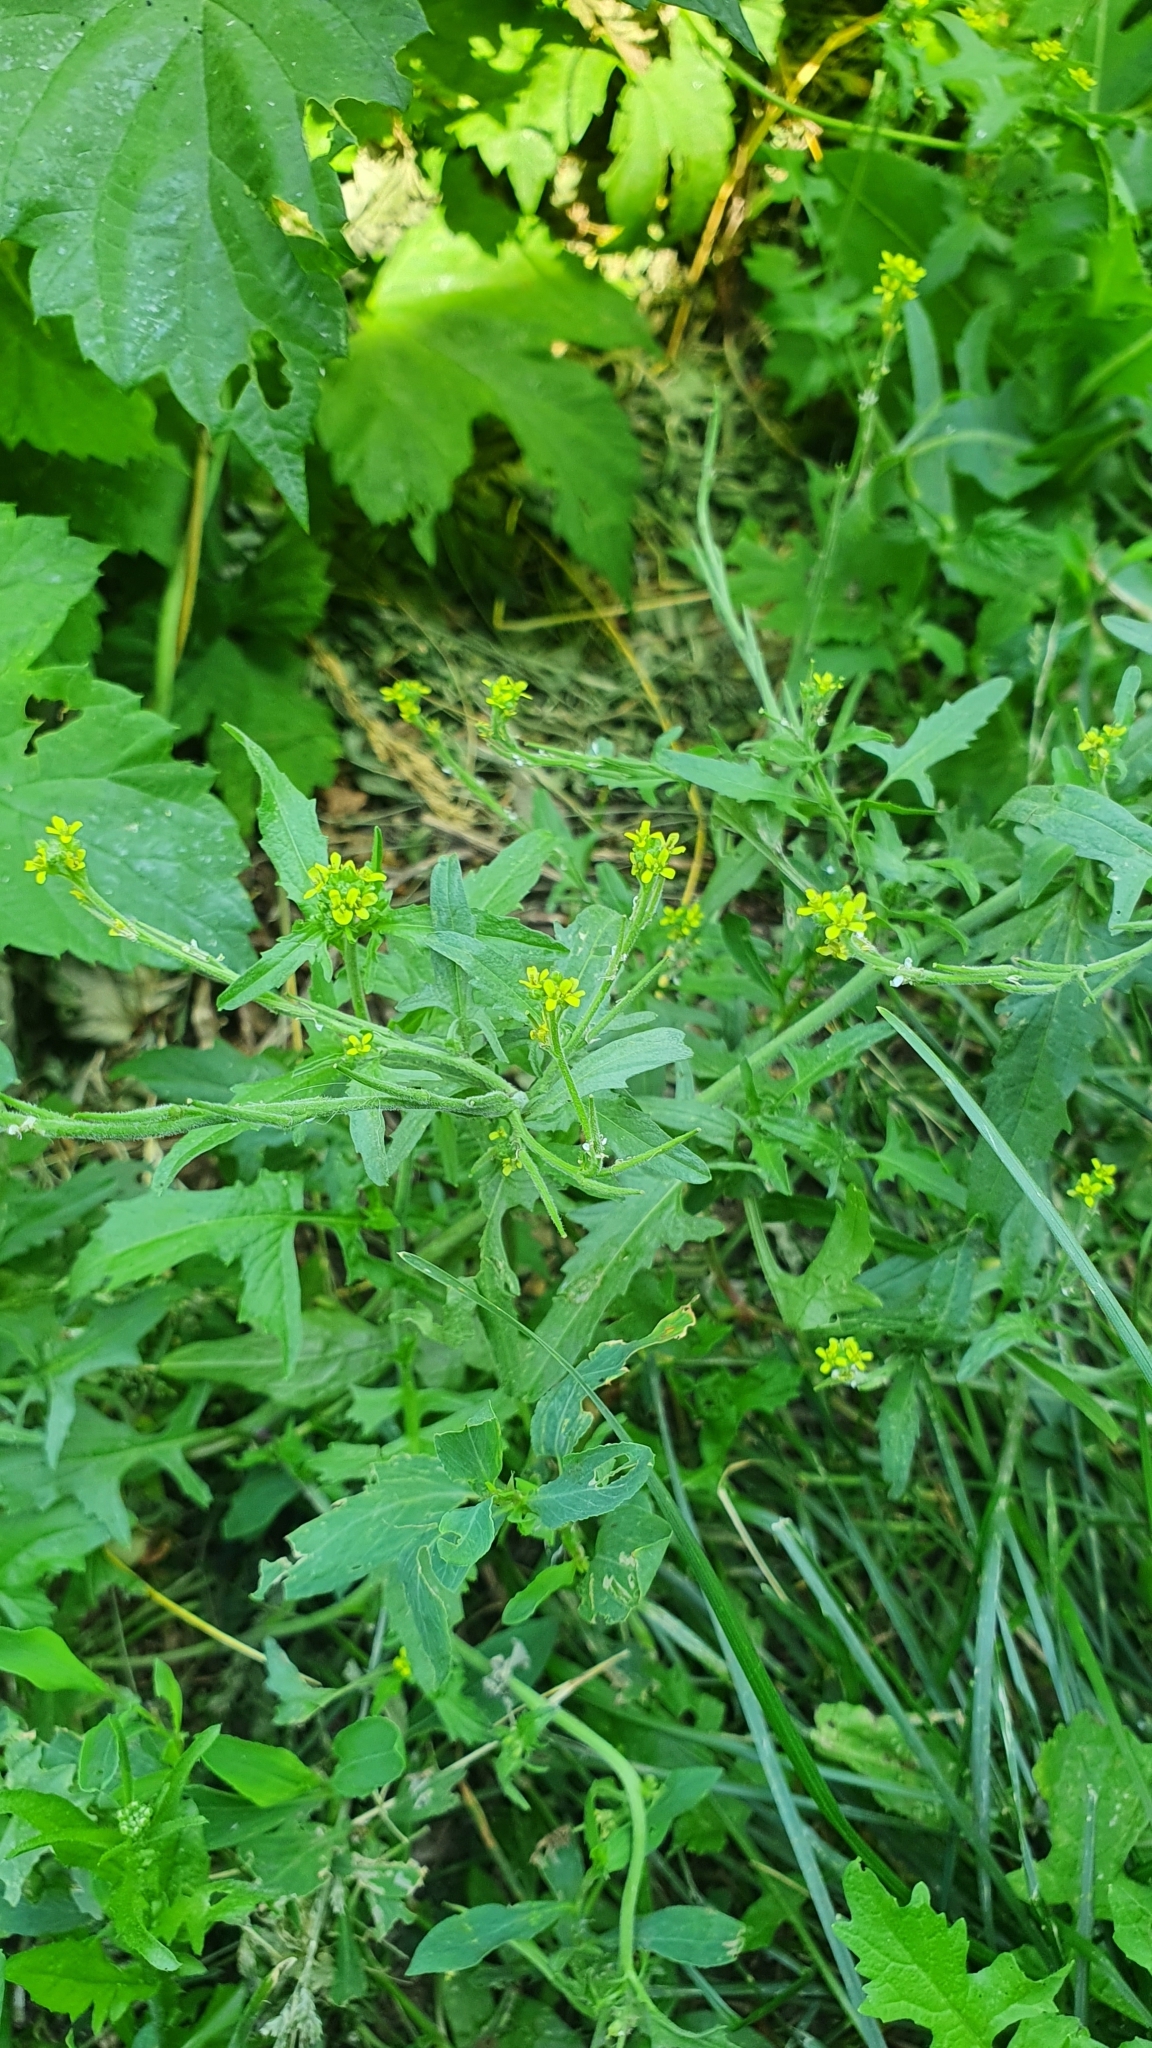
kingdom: Plantae
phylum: Tracheophyta
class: Magnoliopsida
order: Brassicales
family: Brassicaceae
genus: Sisymbrium
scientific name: Sisymbrium officinale
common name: Hedge mustard
